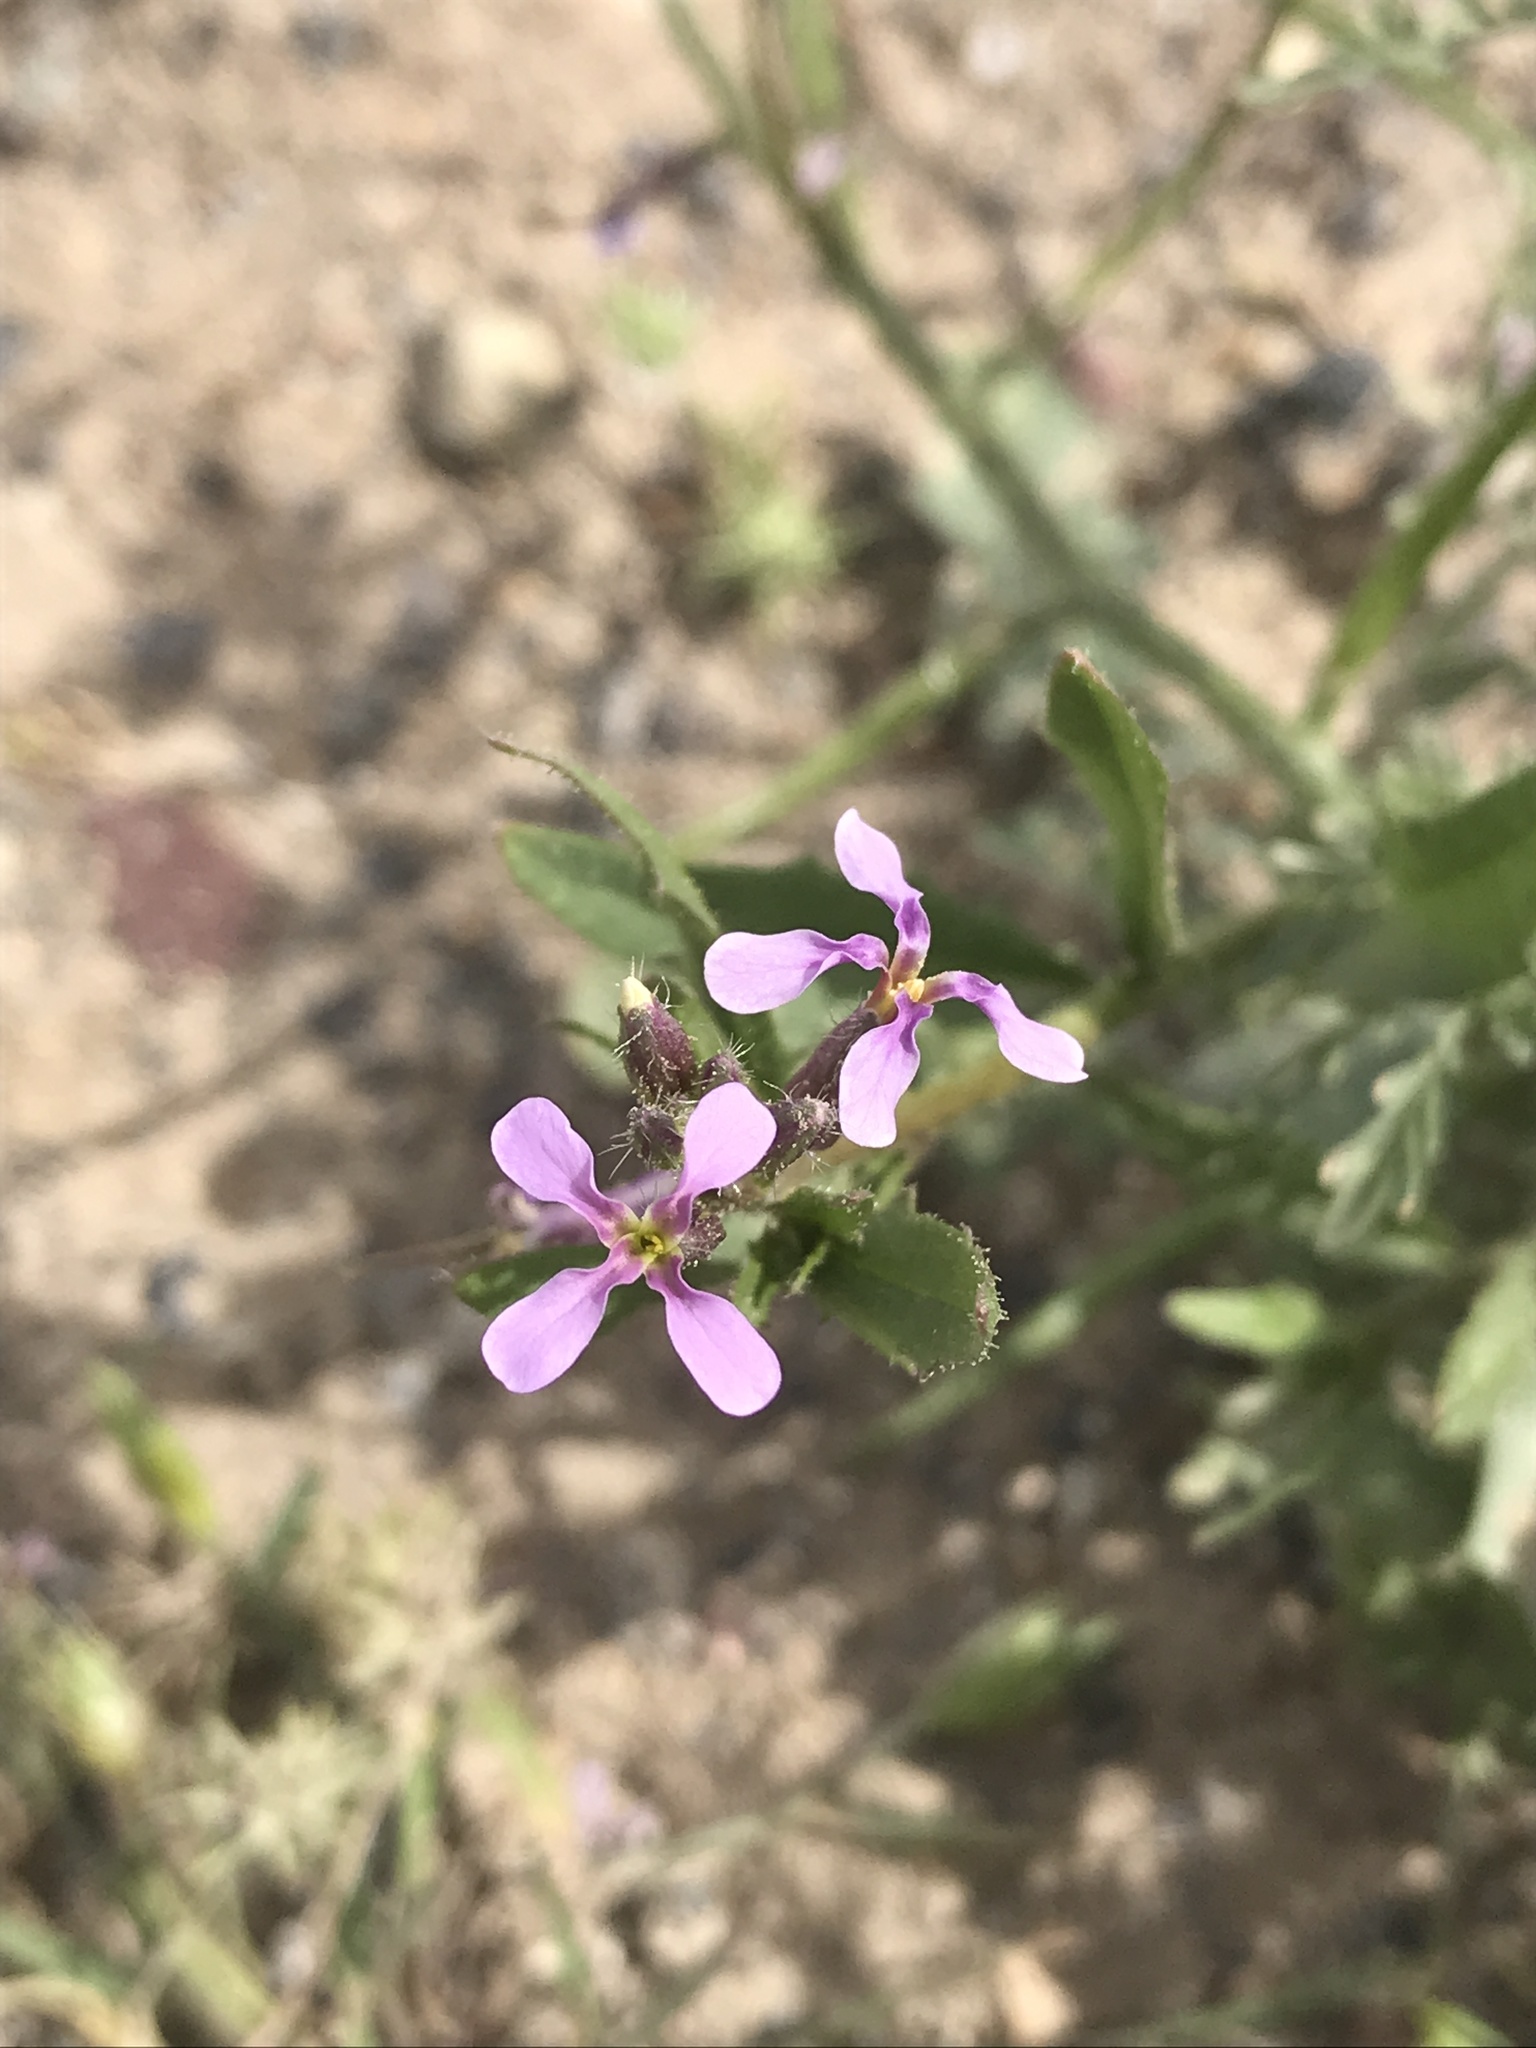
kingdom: Plantae
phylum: Tracheophyta
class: Magnoliopsida
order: Brassicales
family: Brassicaceae
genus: Chorispora
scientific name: Chorispora tenella
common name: Crossflower
